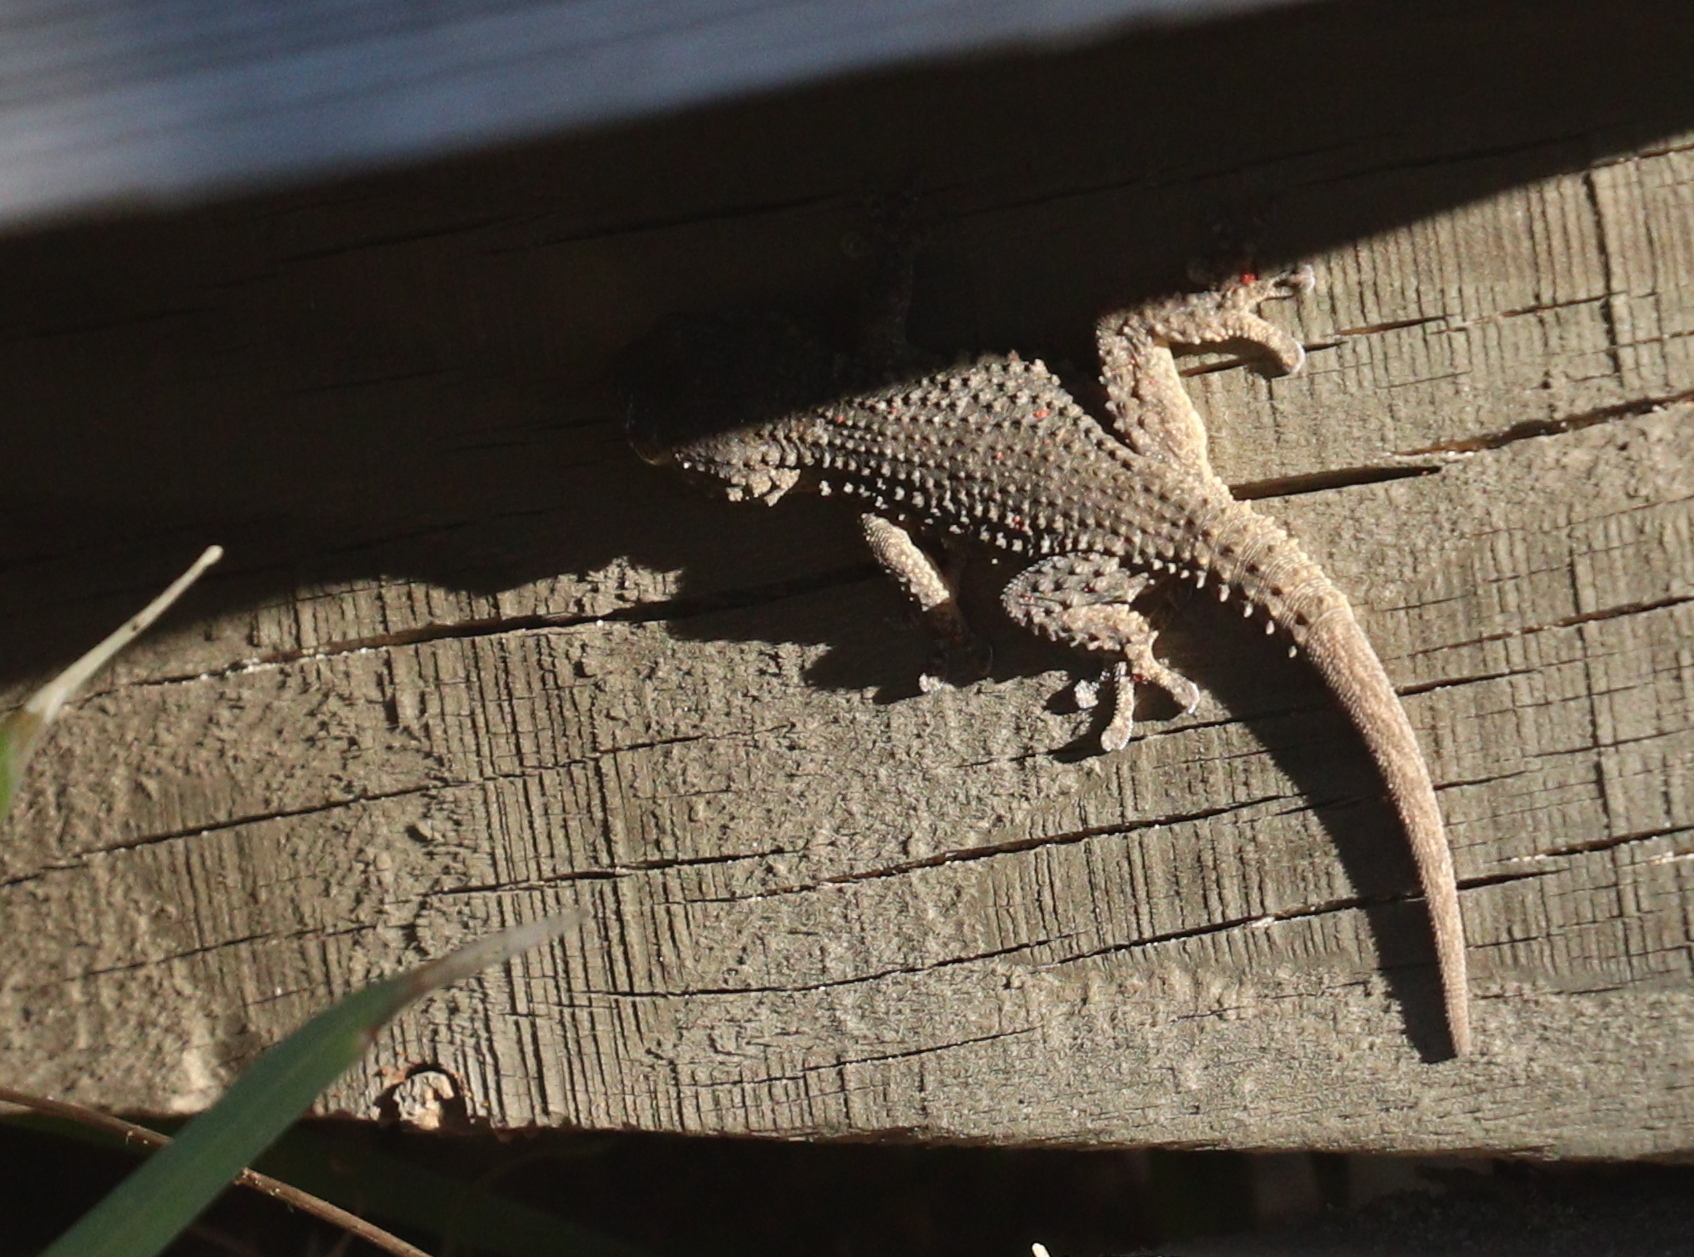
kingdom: Animalia
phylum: Chordata
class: Squamata
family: Phyllodactylidae
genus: Tarentola
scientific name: Tarentola mauritanica
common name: Moorish gecko
